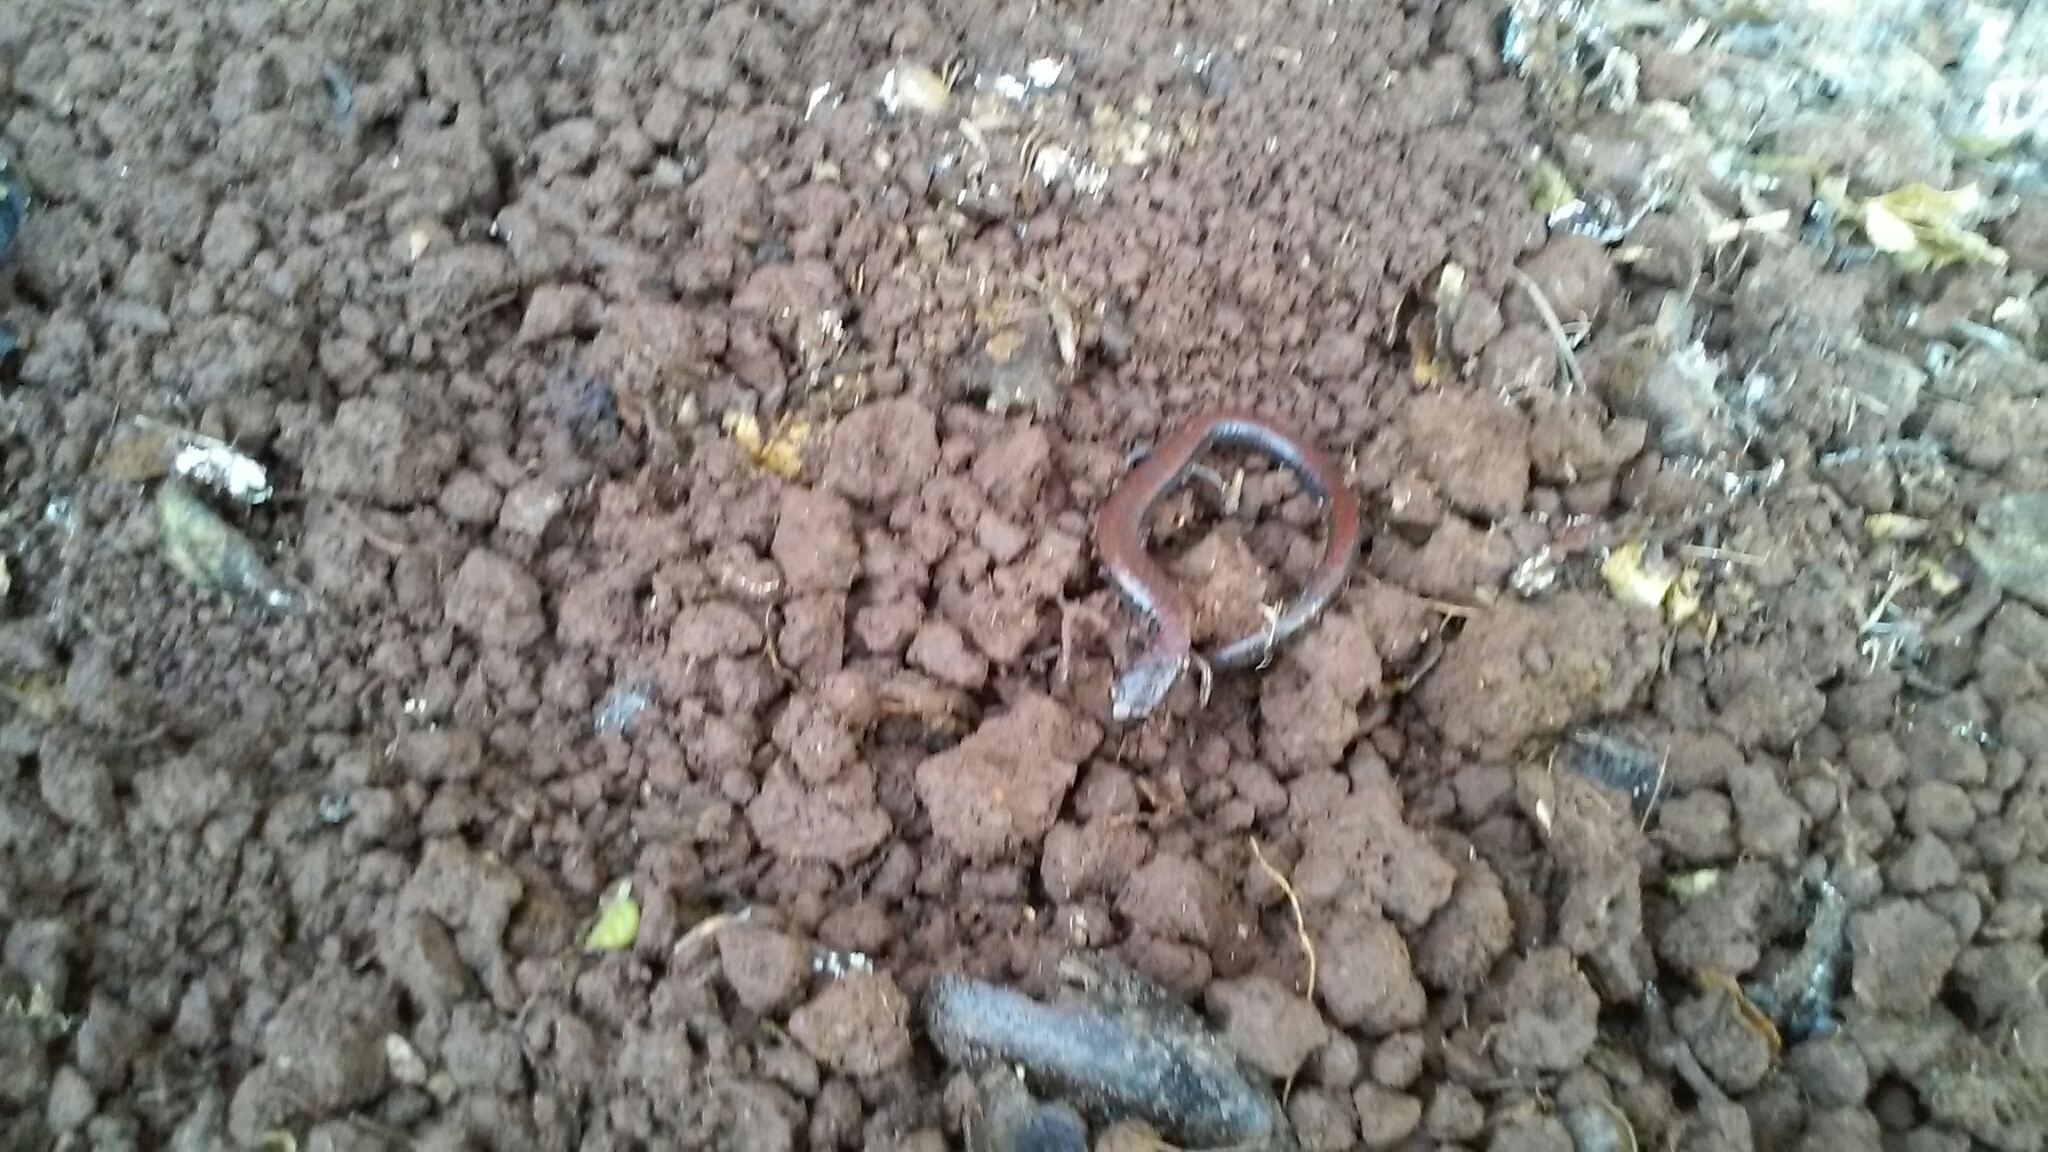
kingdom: Animalia
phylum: Chordata
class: Amphibia
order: Caudata
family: Plethodontidae
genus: Batrachoseps
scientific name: Batrachoseps attenuatus
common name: California slender salamander
